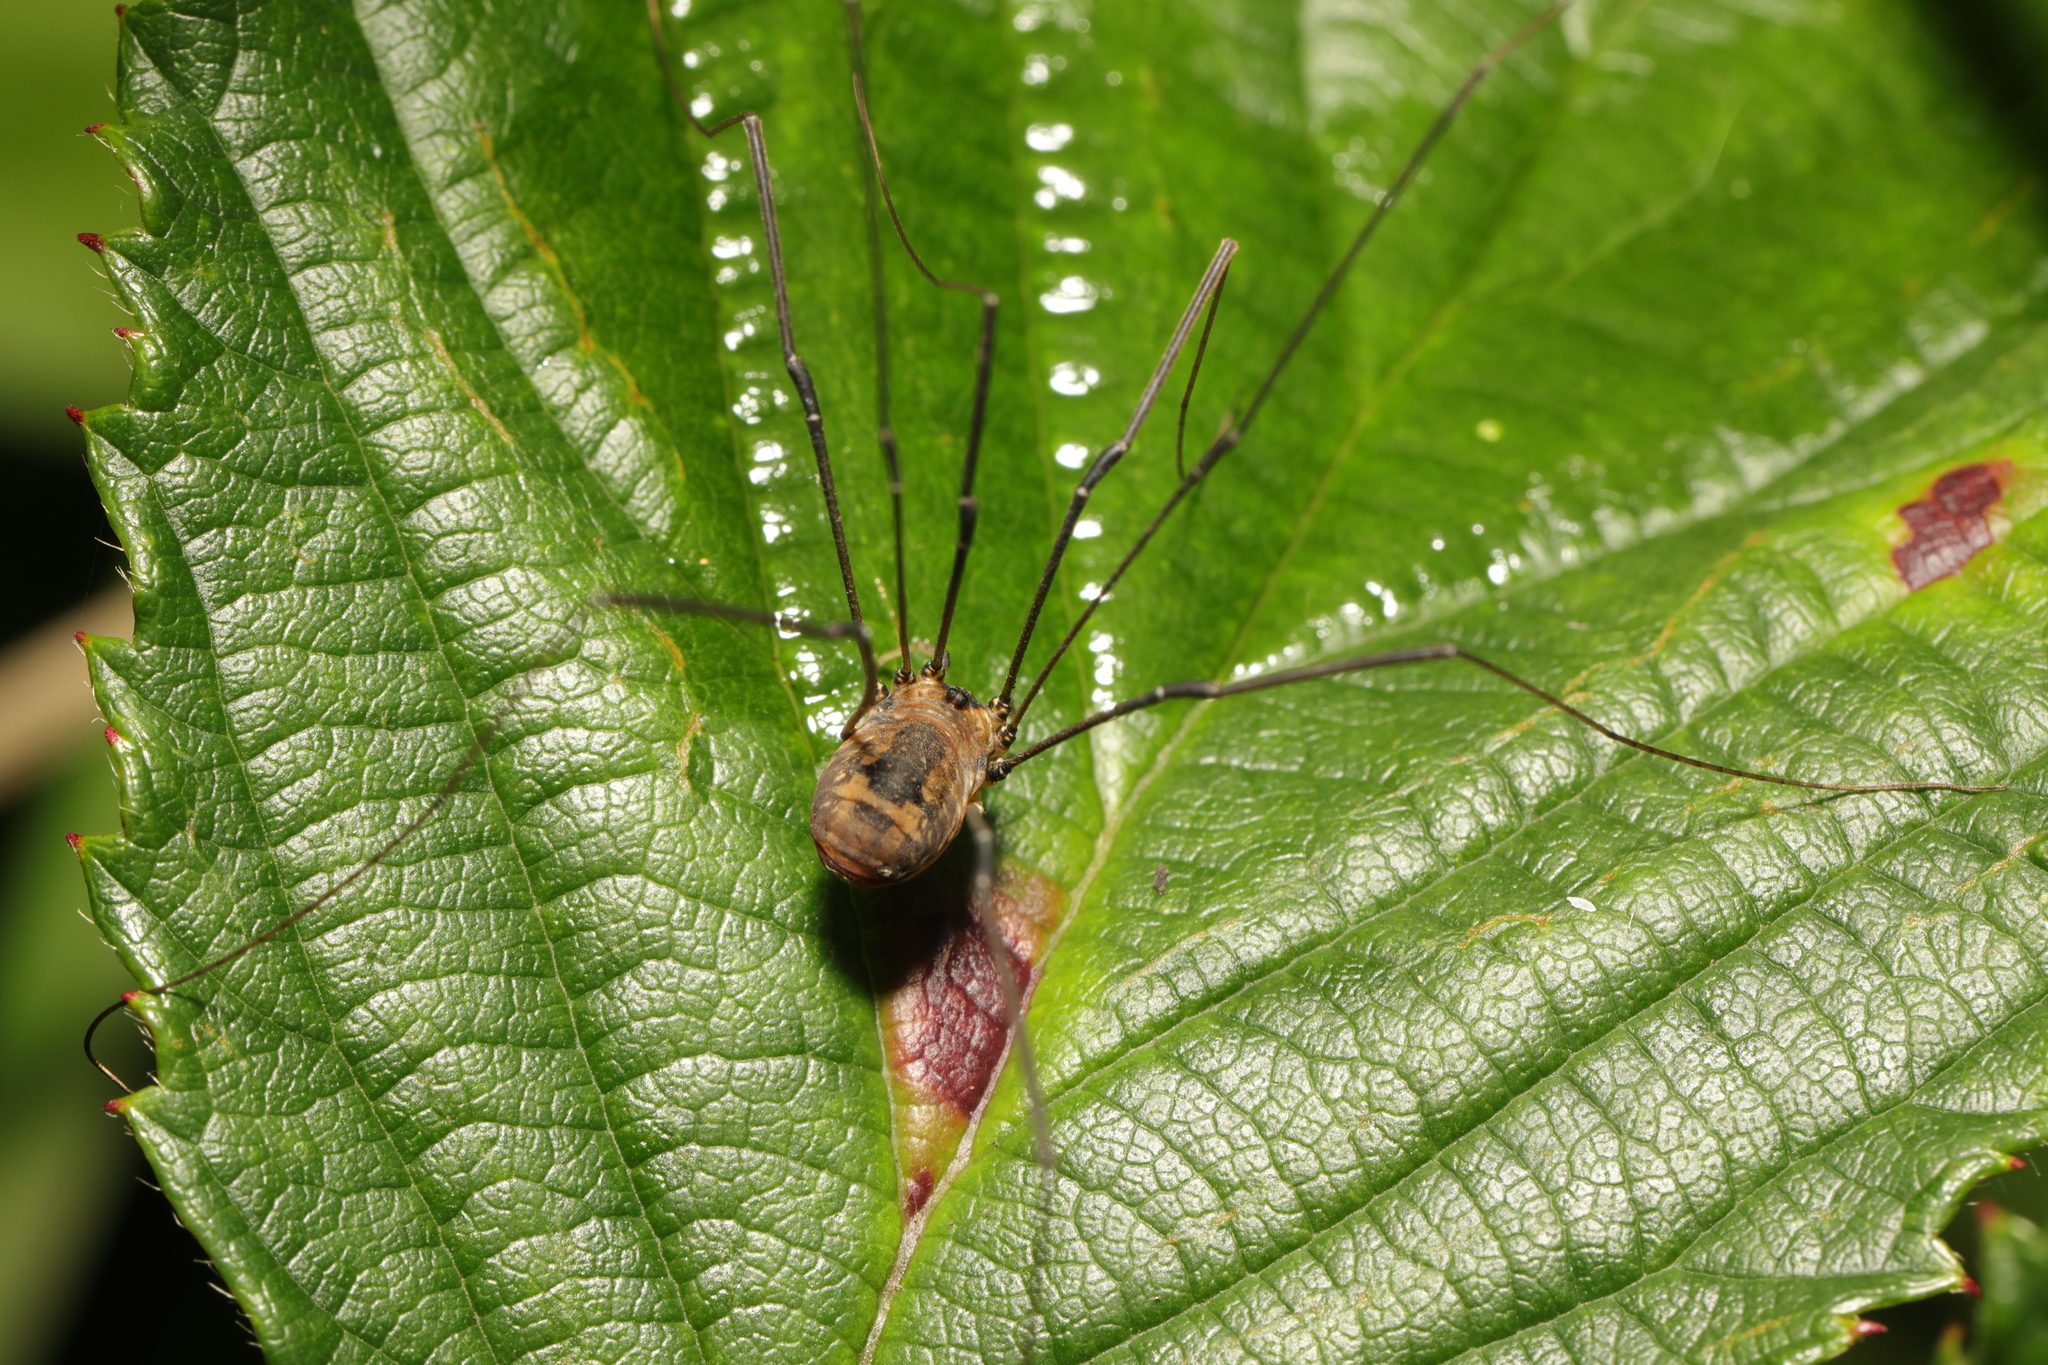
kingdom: Animalia
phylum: Arthropoda
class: Arachnida
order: Opiliones
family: Sclerosomatidae
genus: Leiobunum
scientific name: Leiobunum rotundum
